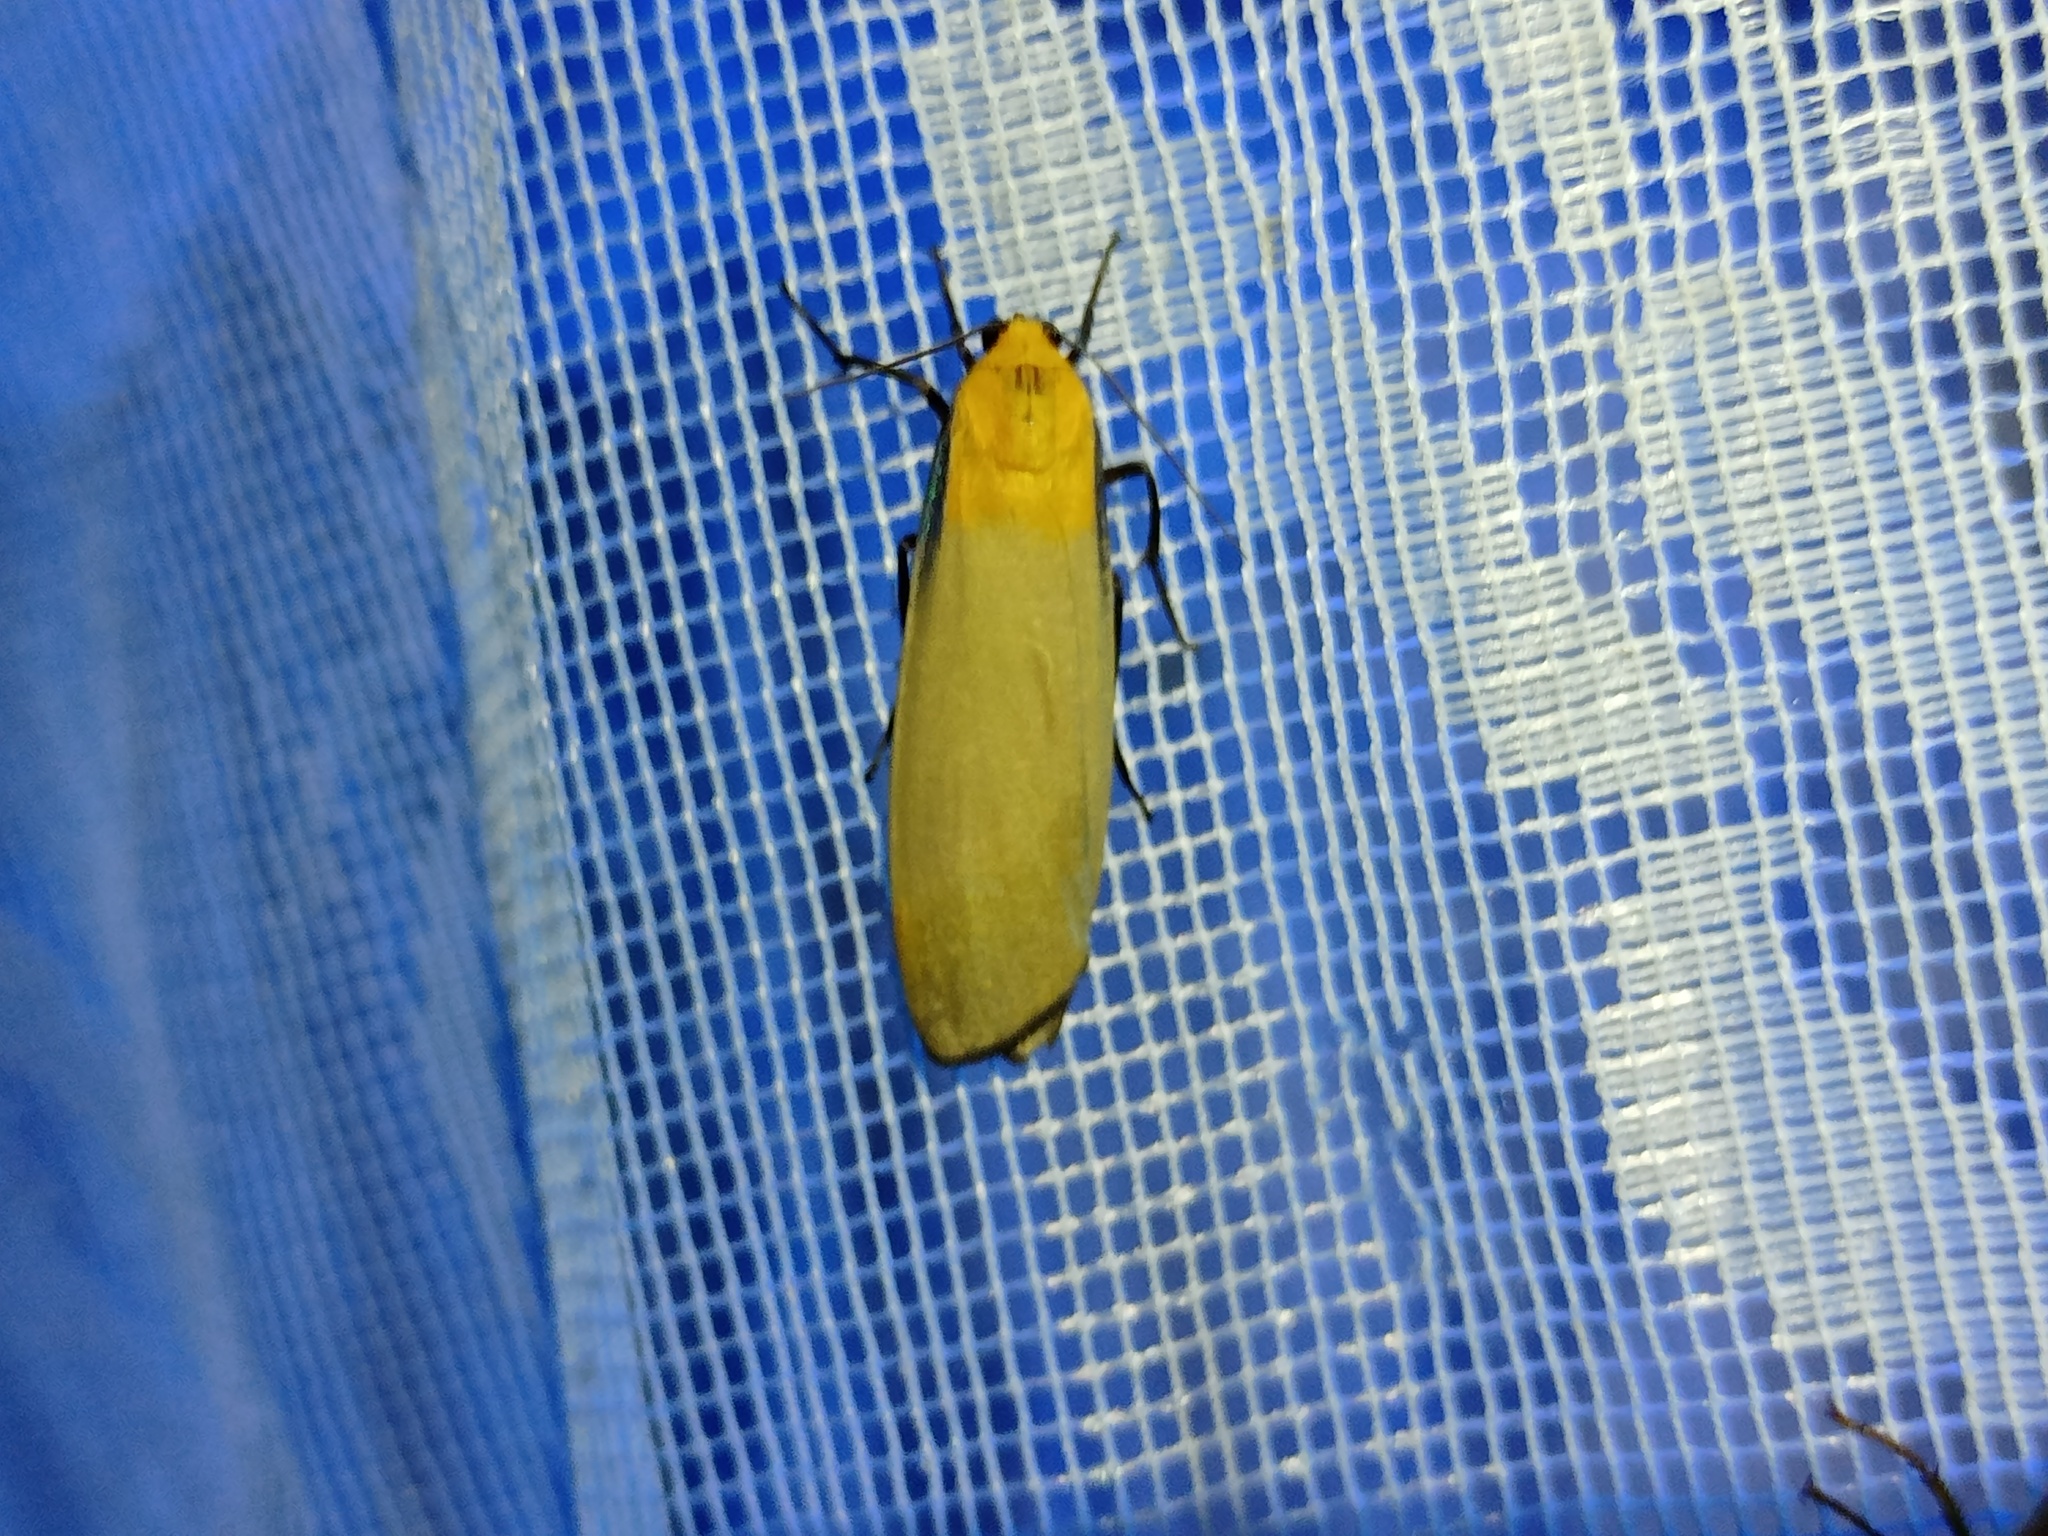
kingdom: Animalia
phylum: Arthropoda
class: Insecta
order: Lepidoptera
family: Erebidae
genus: Lithosia
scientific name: Lithosia quadra
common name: Four-spotted footman
